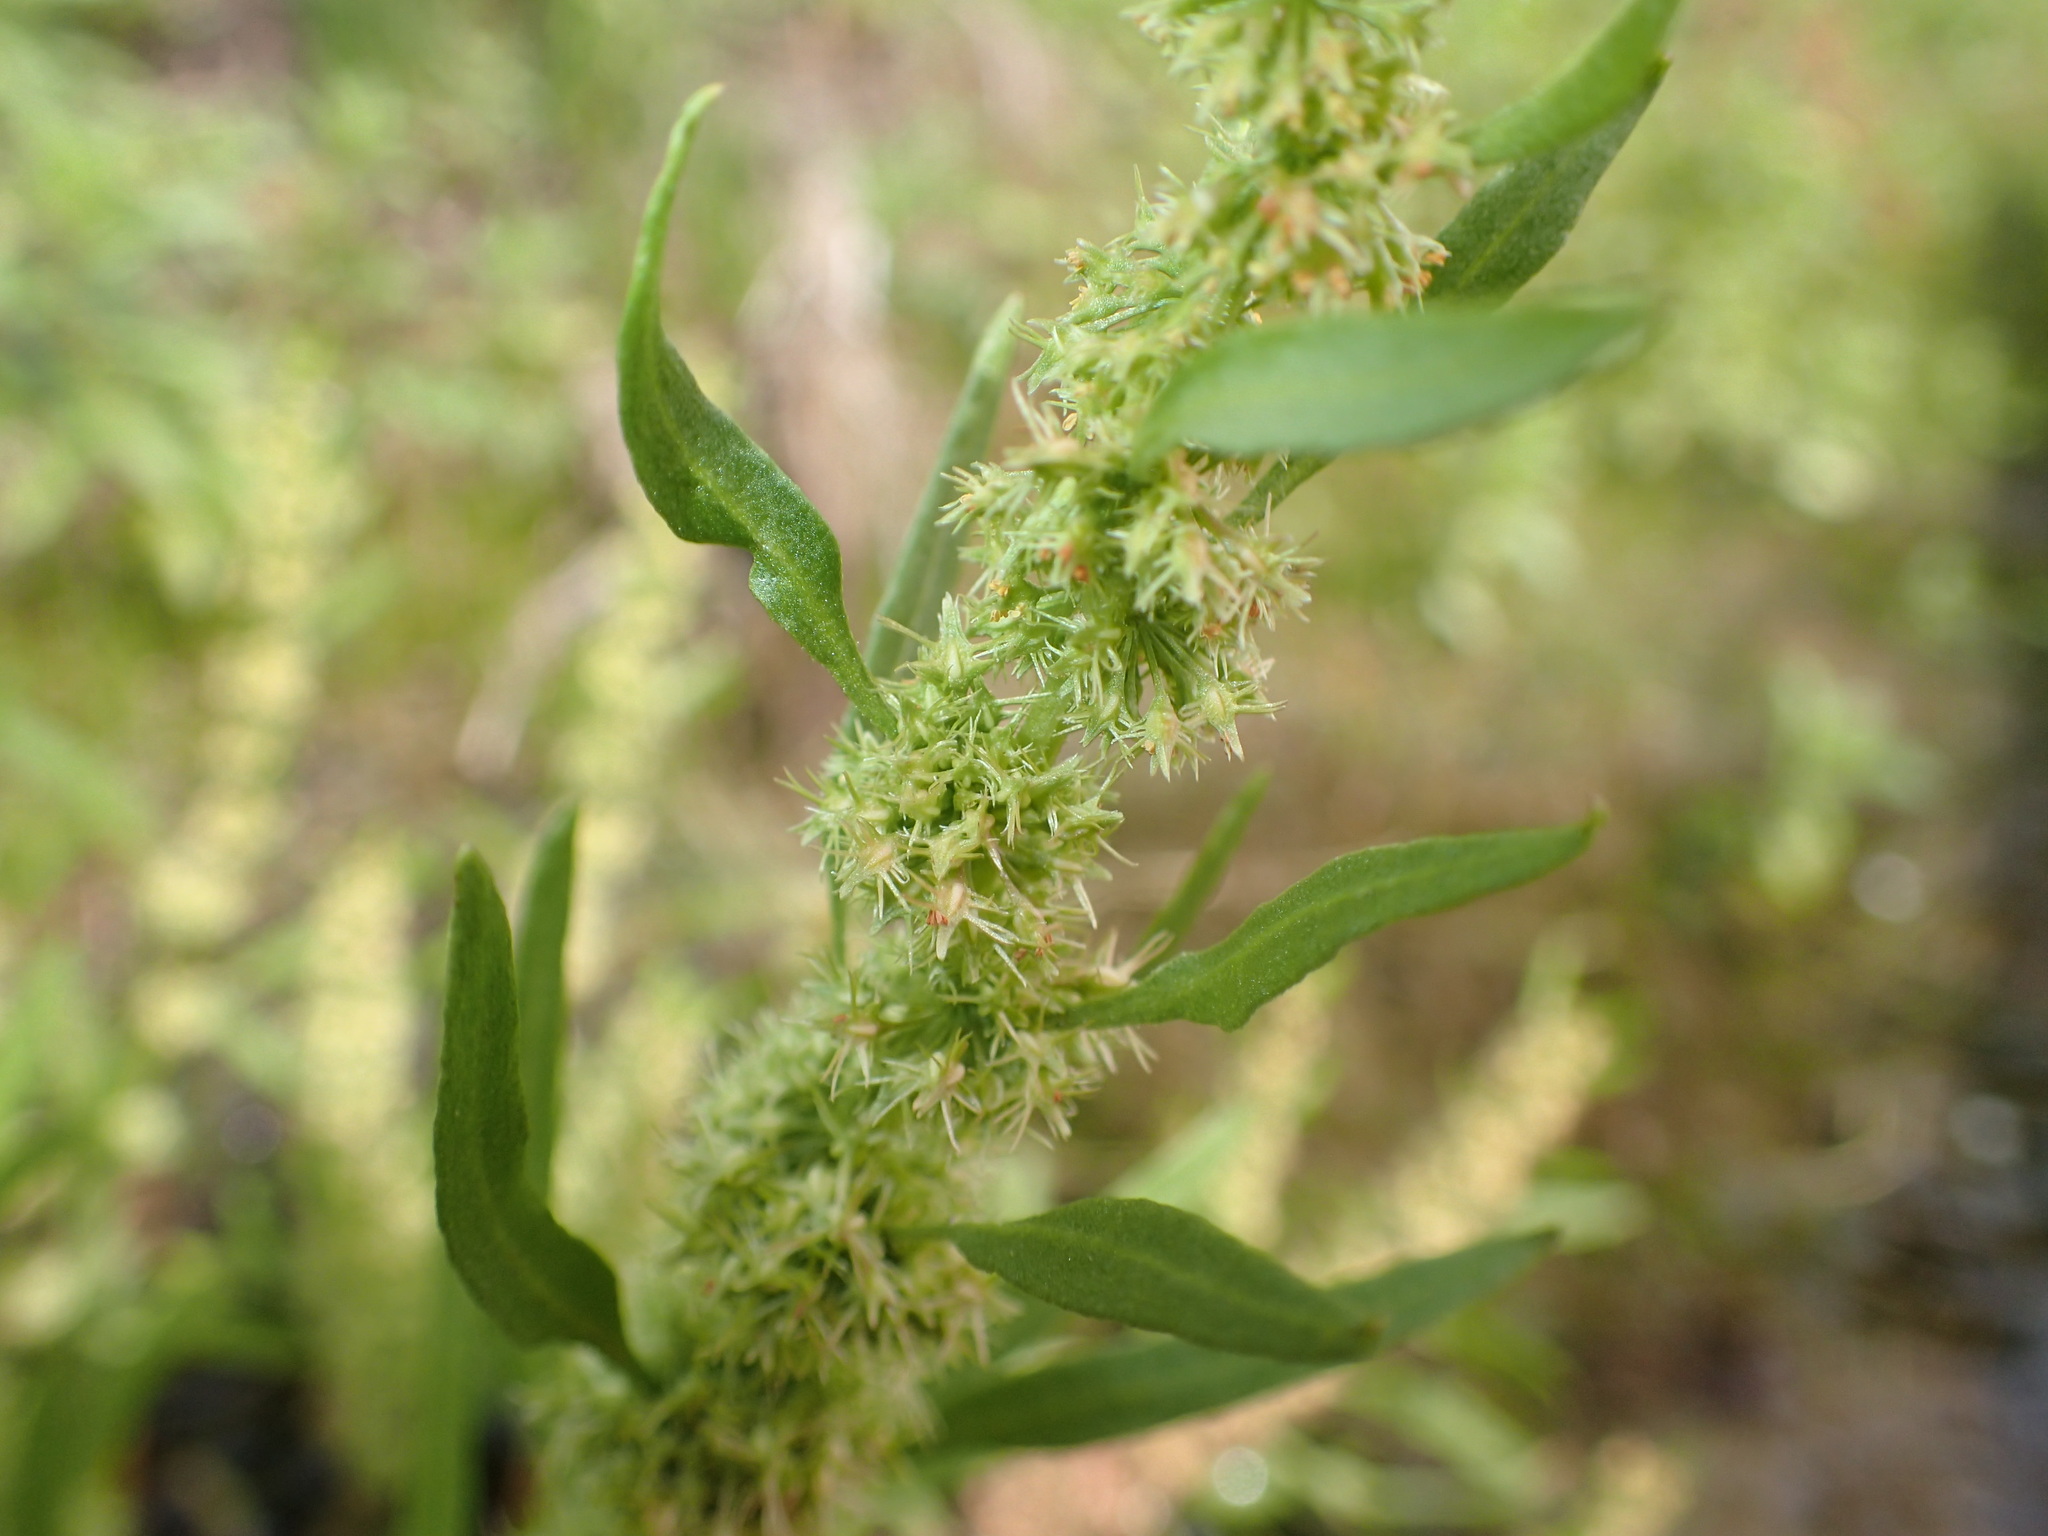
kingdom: Plantae
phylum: Tracheophyta
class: Magnoliopsida
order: Caryophyllales
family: Polygonaceae
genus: Rumex
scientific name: Rumex fueginus
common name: American golden dock
